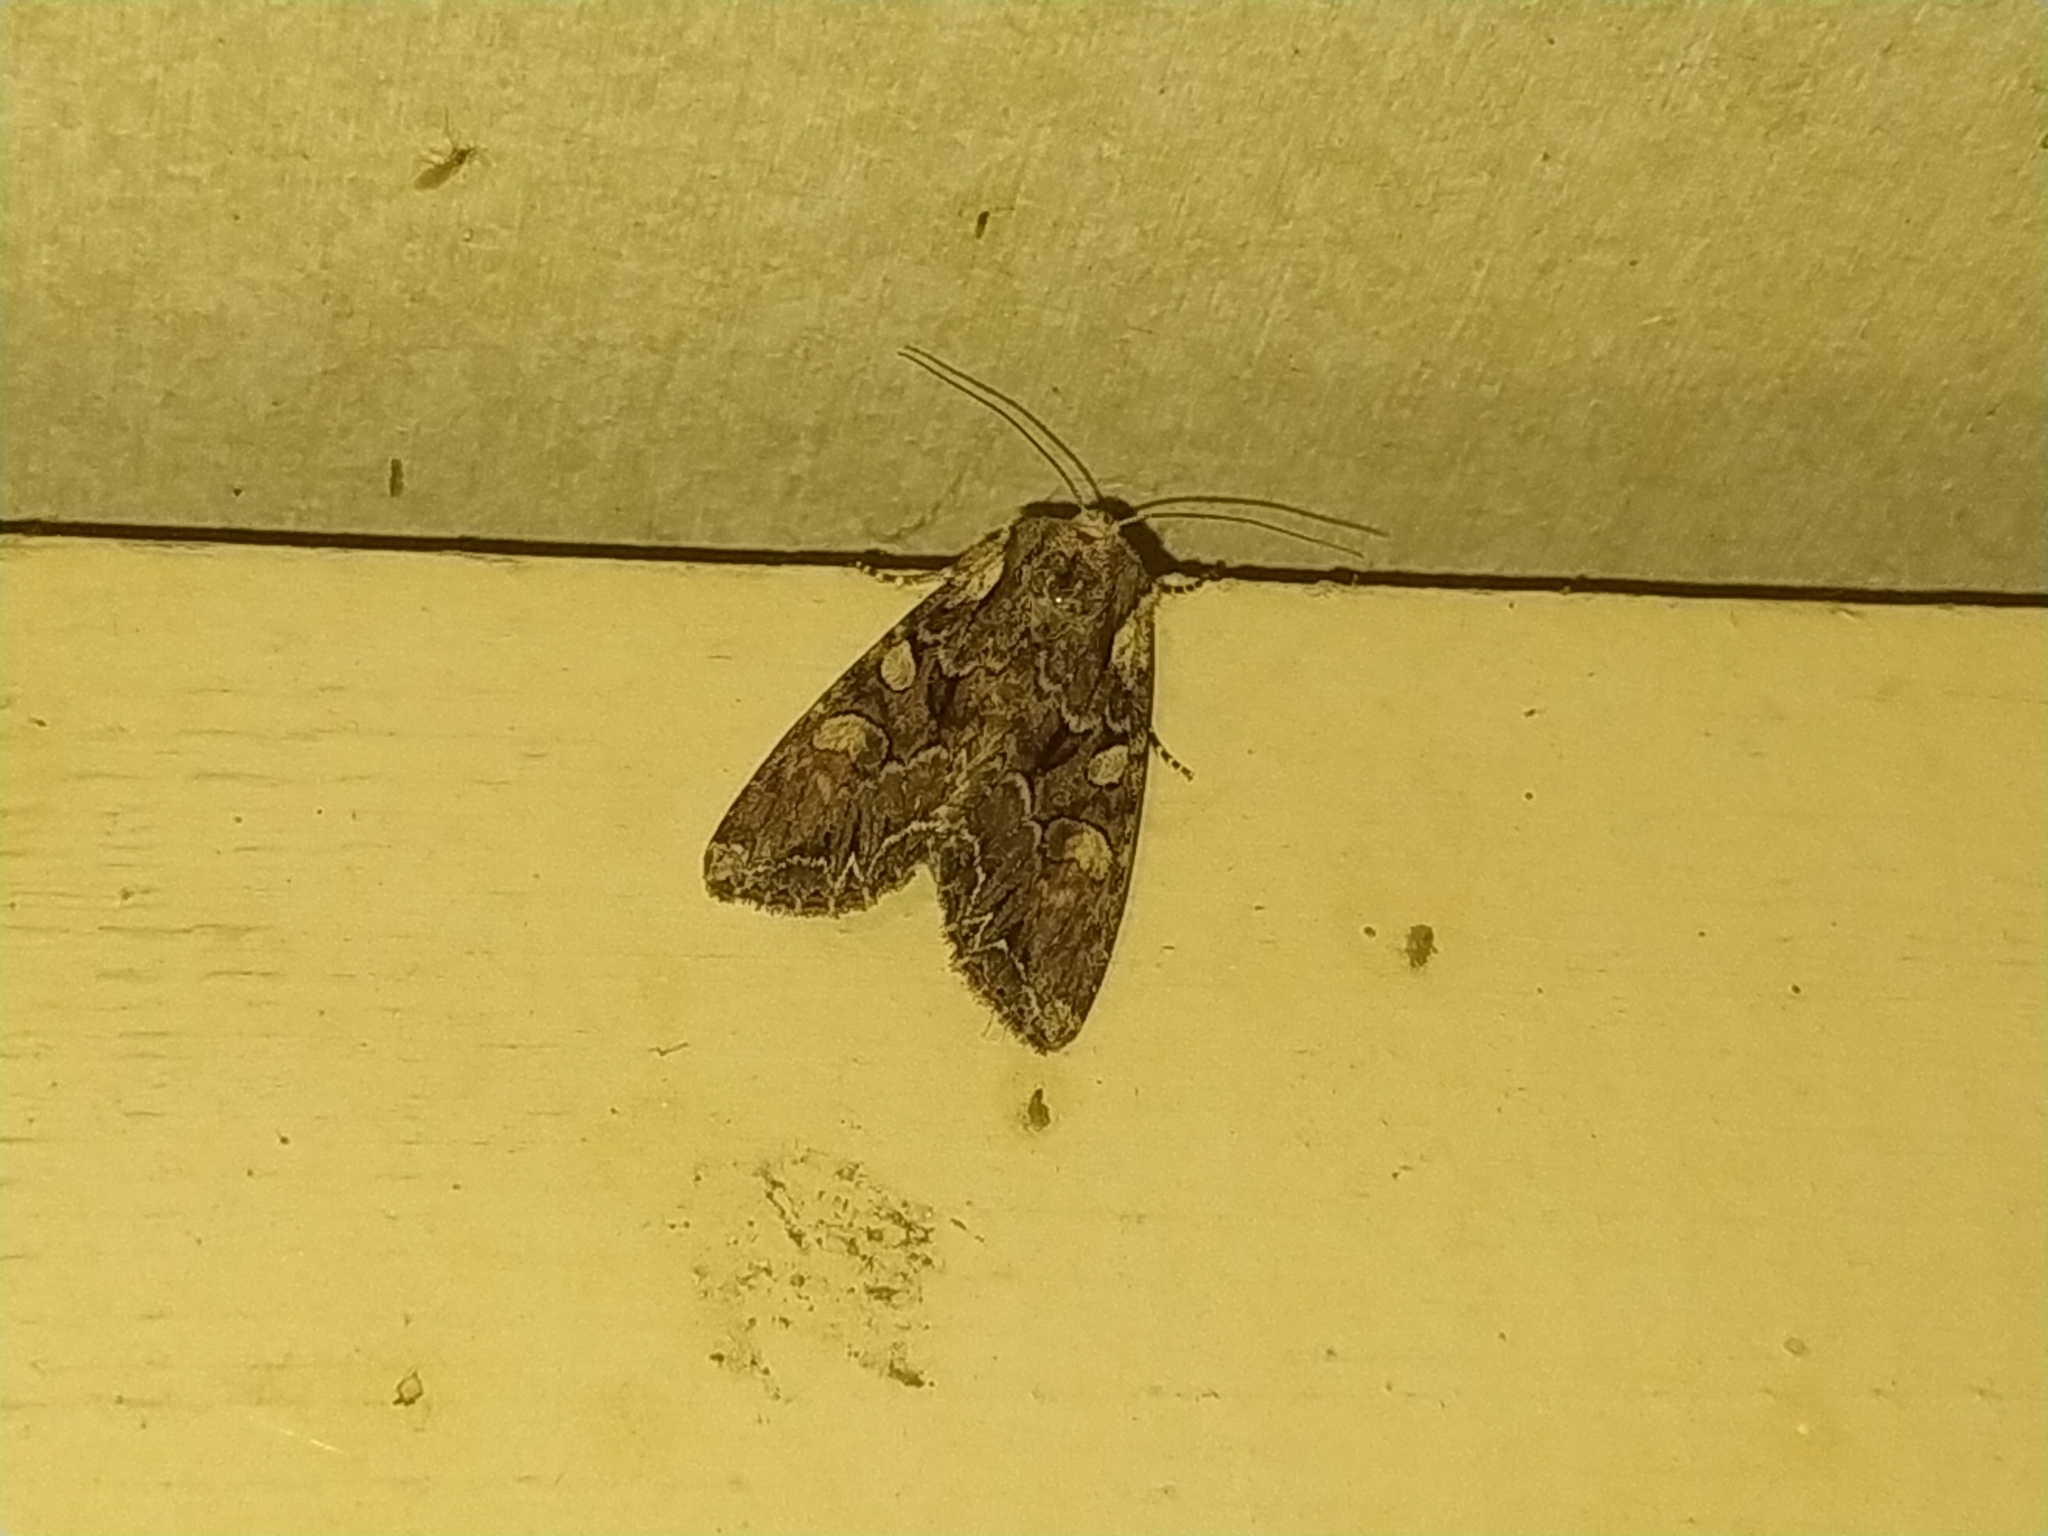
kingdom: Animalia
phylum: Arthropoda
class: Insecta
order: Lepidoptera
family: Noctuidae
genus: Lacanobia
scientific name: Lacanobia thalassina
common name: Pale-shouldered brocade
